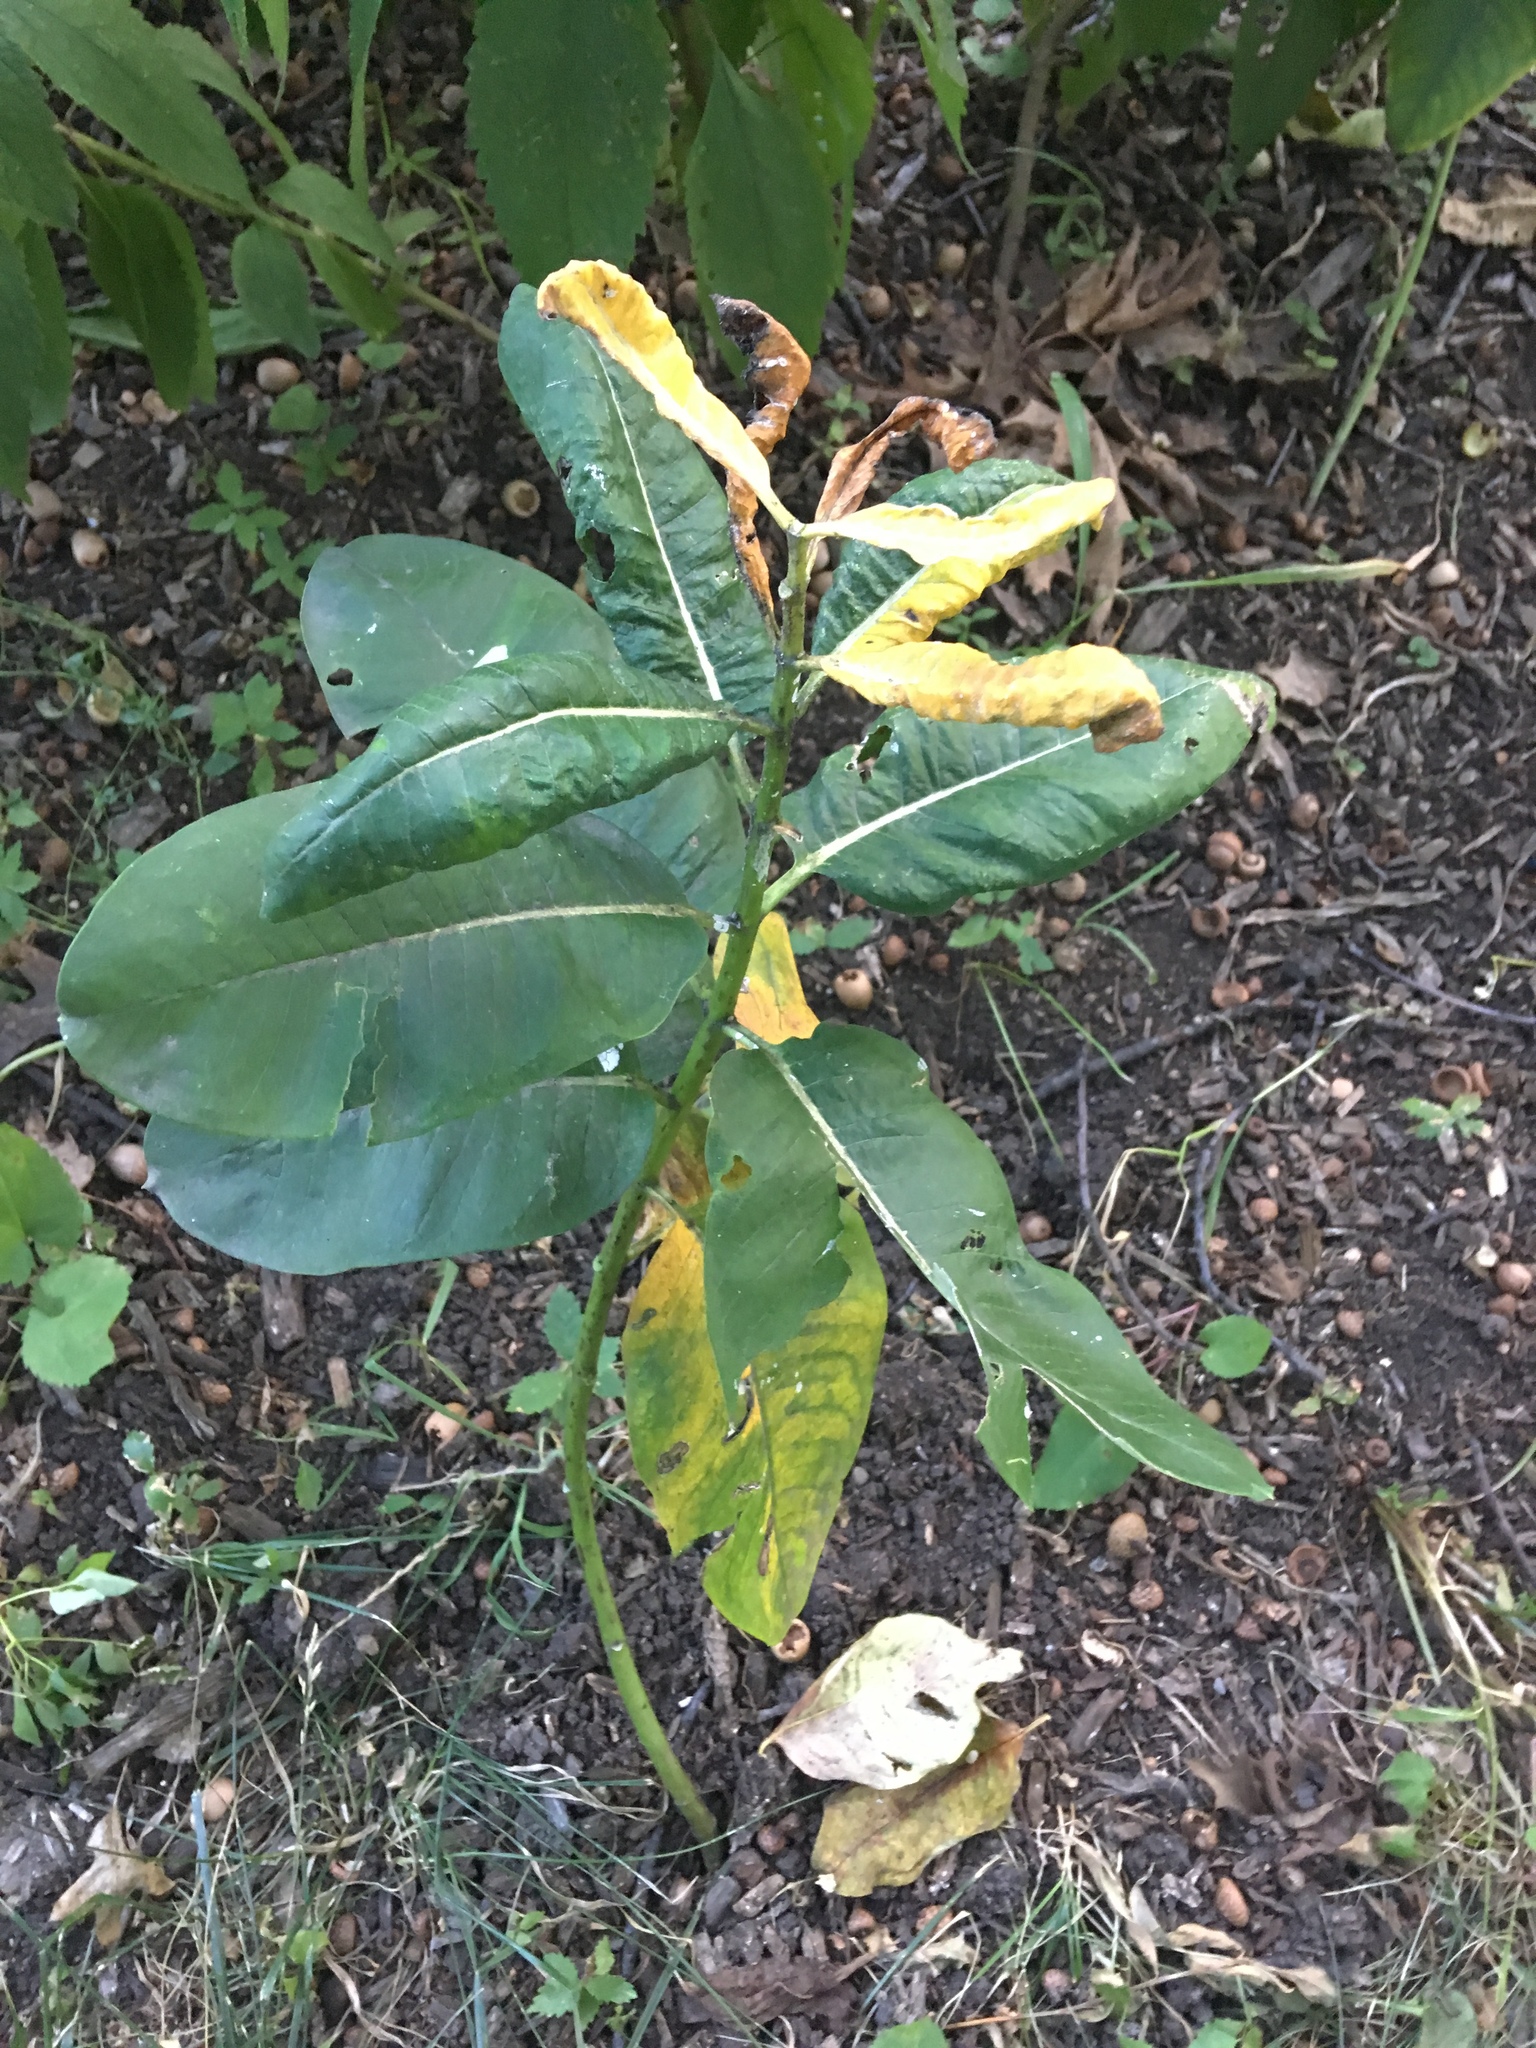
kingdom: Plantae
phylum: Tracheophyta
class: Magnoliopsida
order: Gentianales
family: Apocynaceae
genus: Asclepias
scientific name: Asclepias syriaca
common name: Common milkweed
